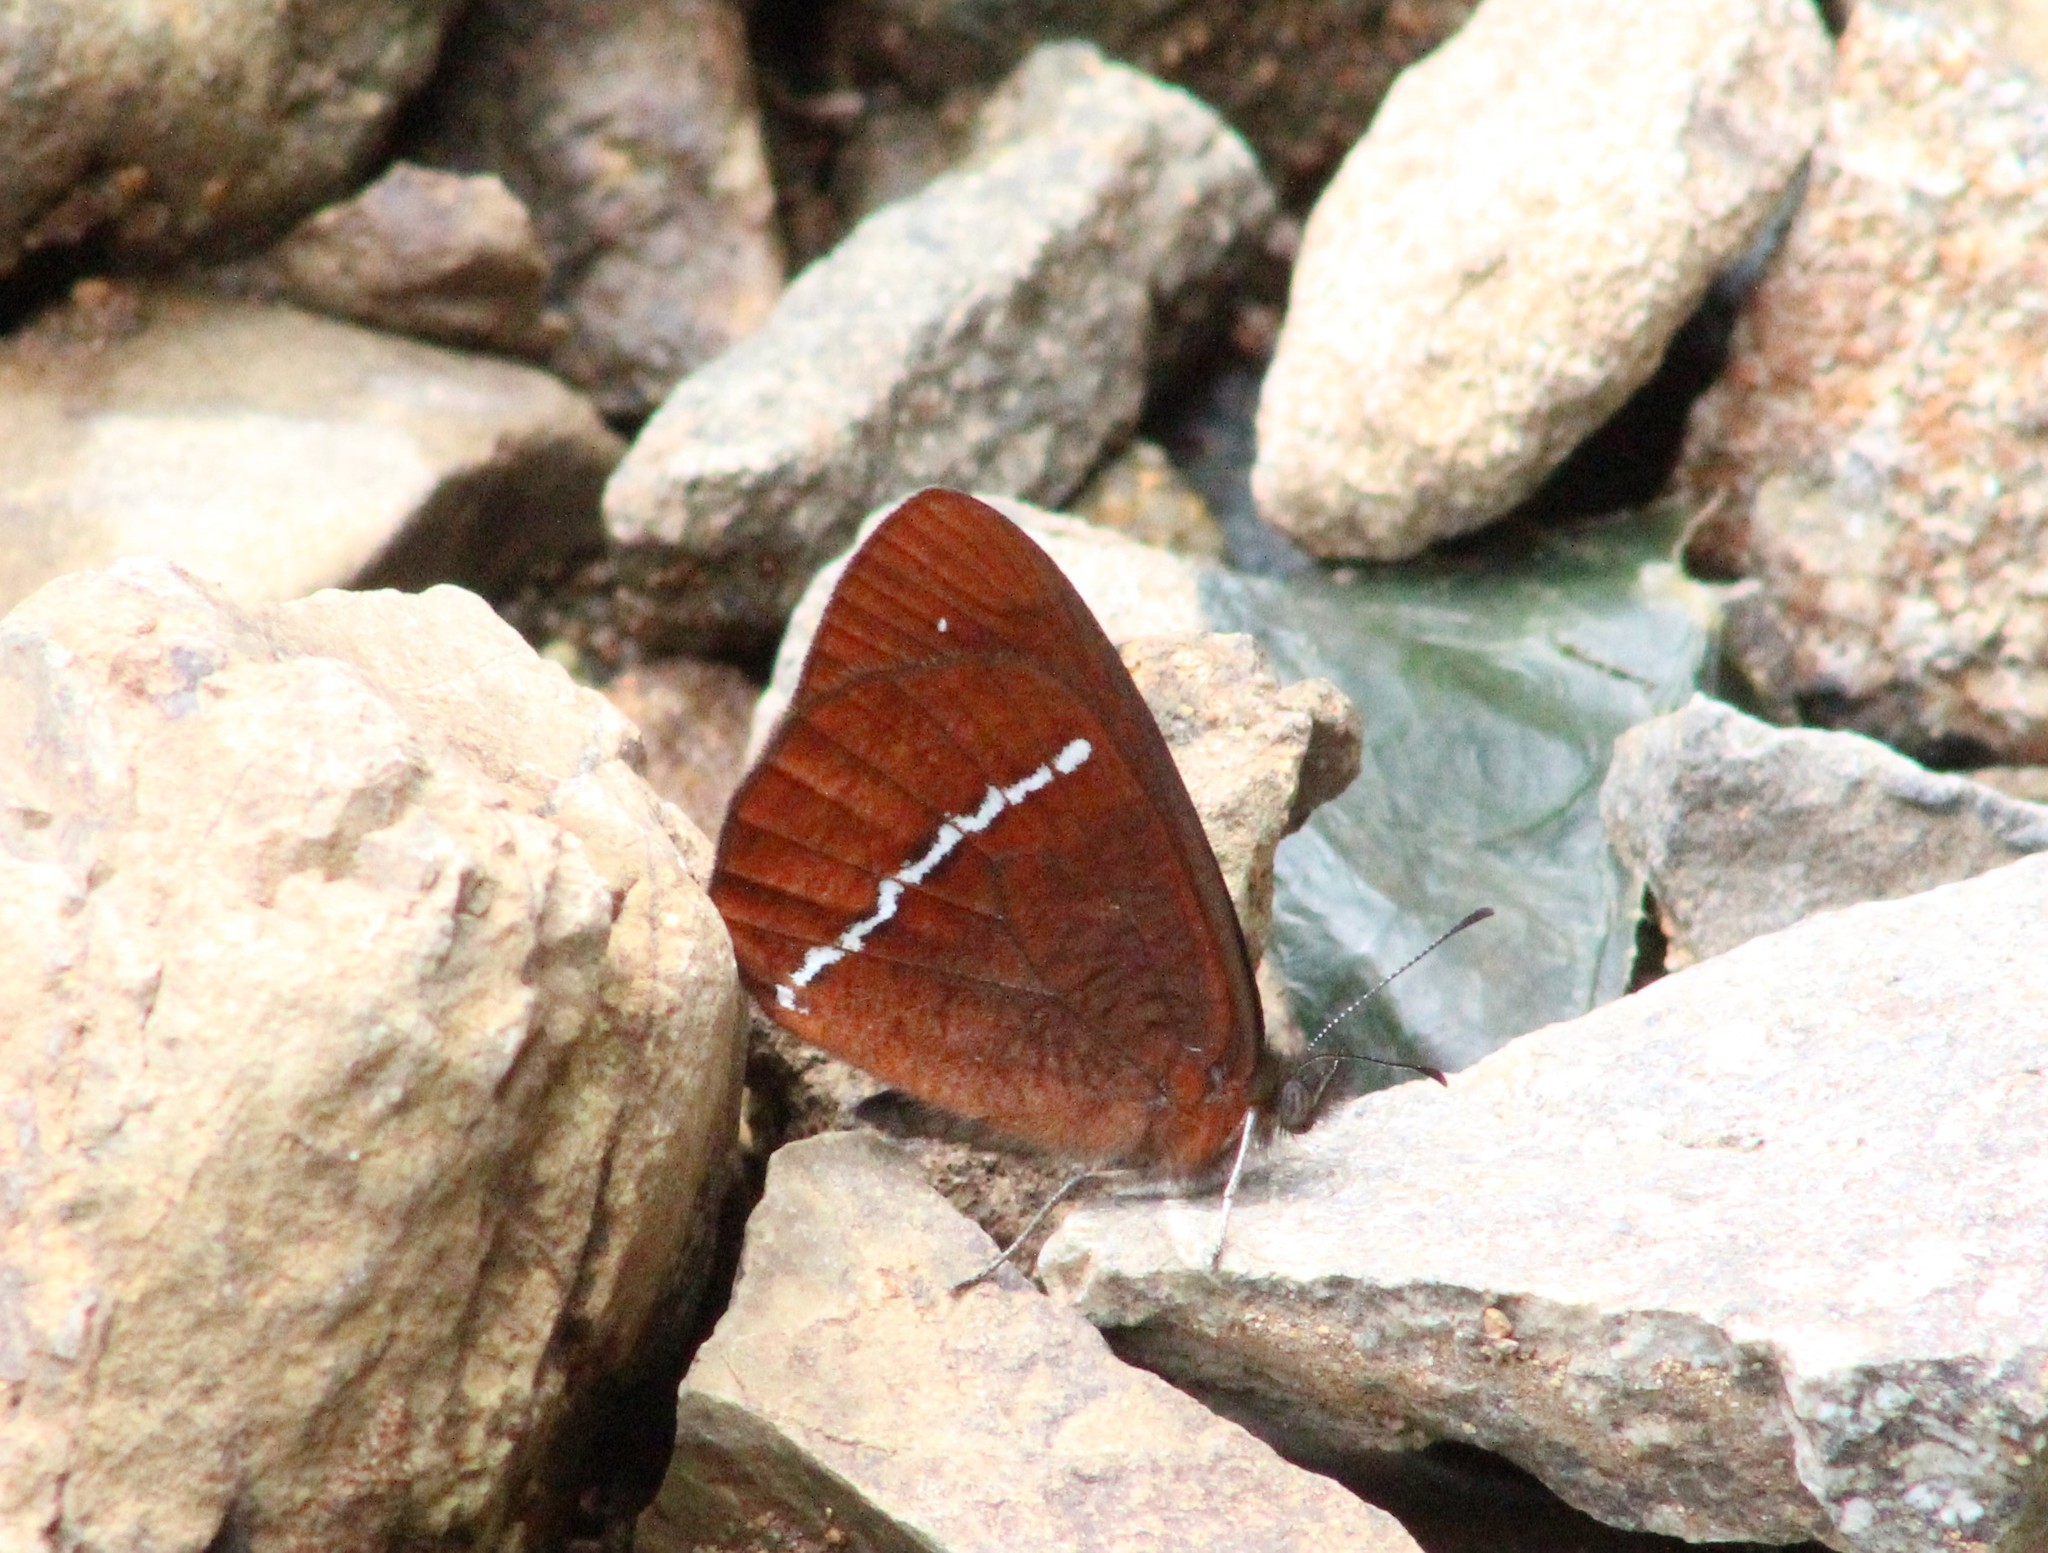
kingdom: Animalia
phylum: Arthropoda
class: Insecta
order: Lepidoptera
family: Nymphalidae
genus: Lymanopoda
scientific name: Lymanopoda albocincta
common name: White-banded mountain satyr
